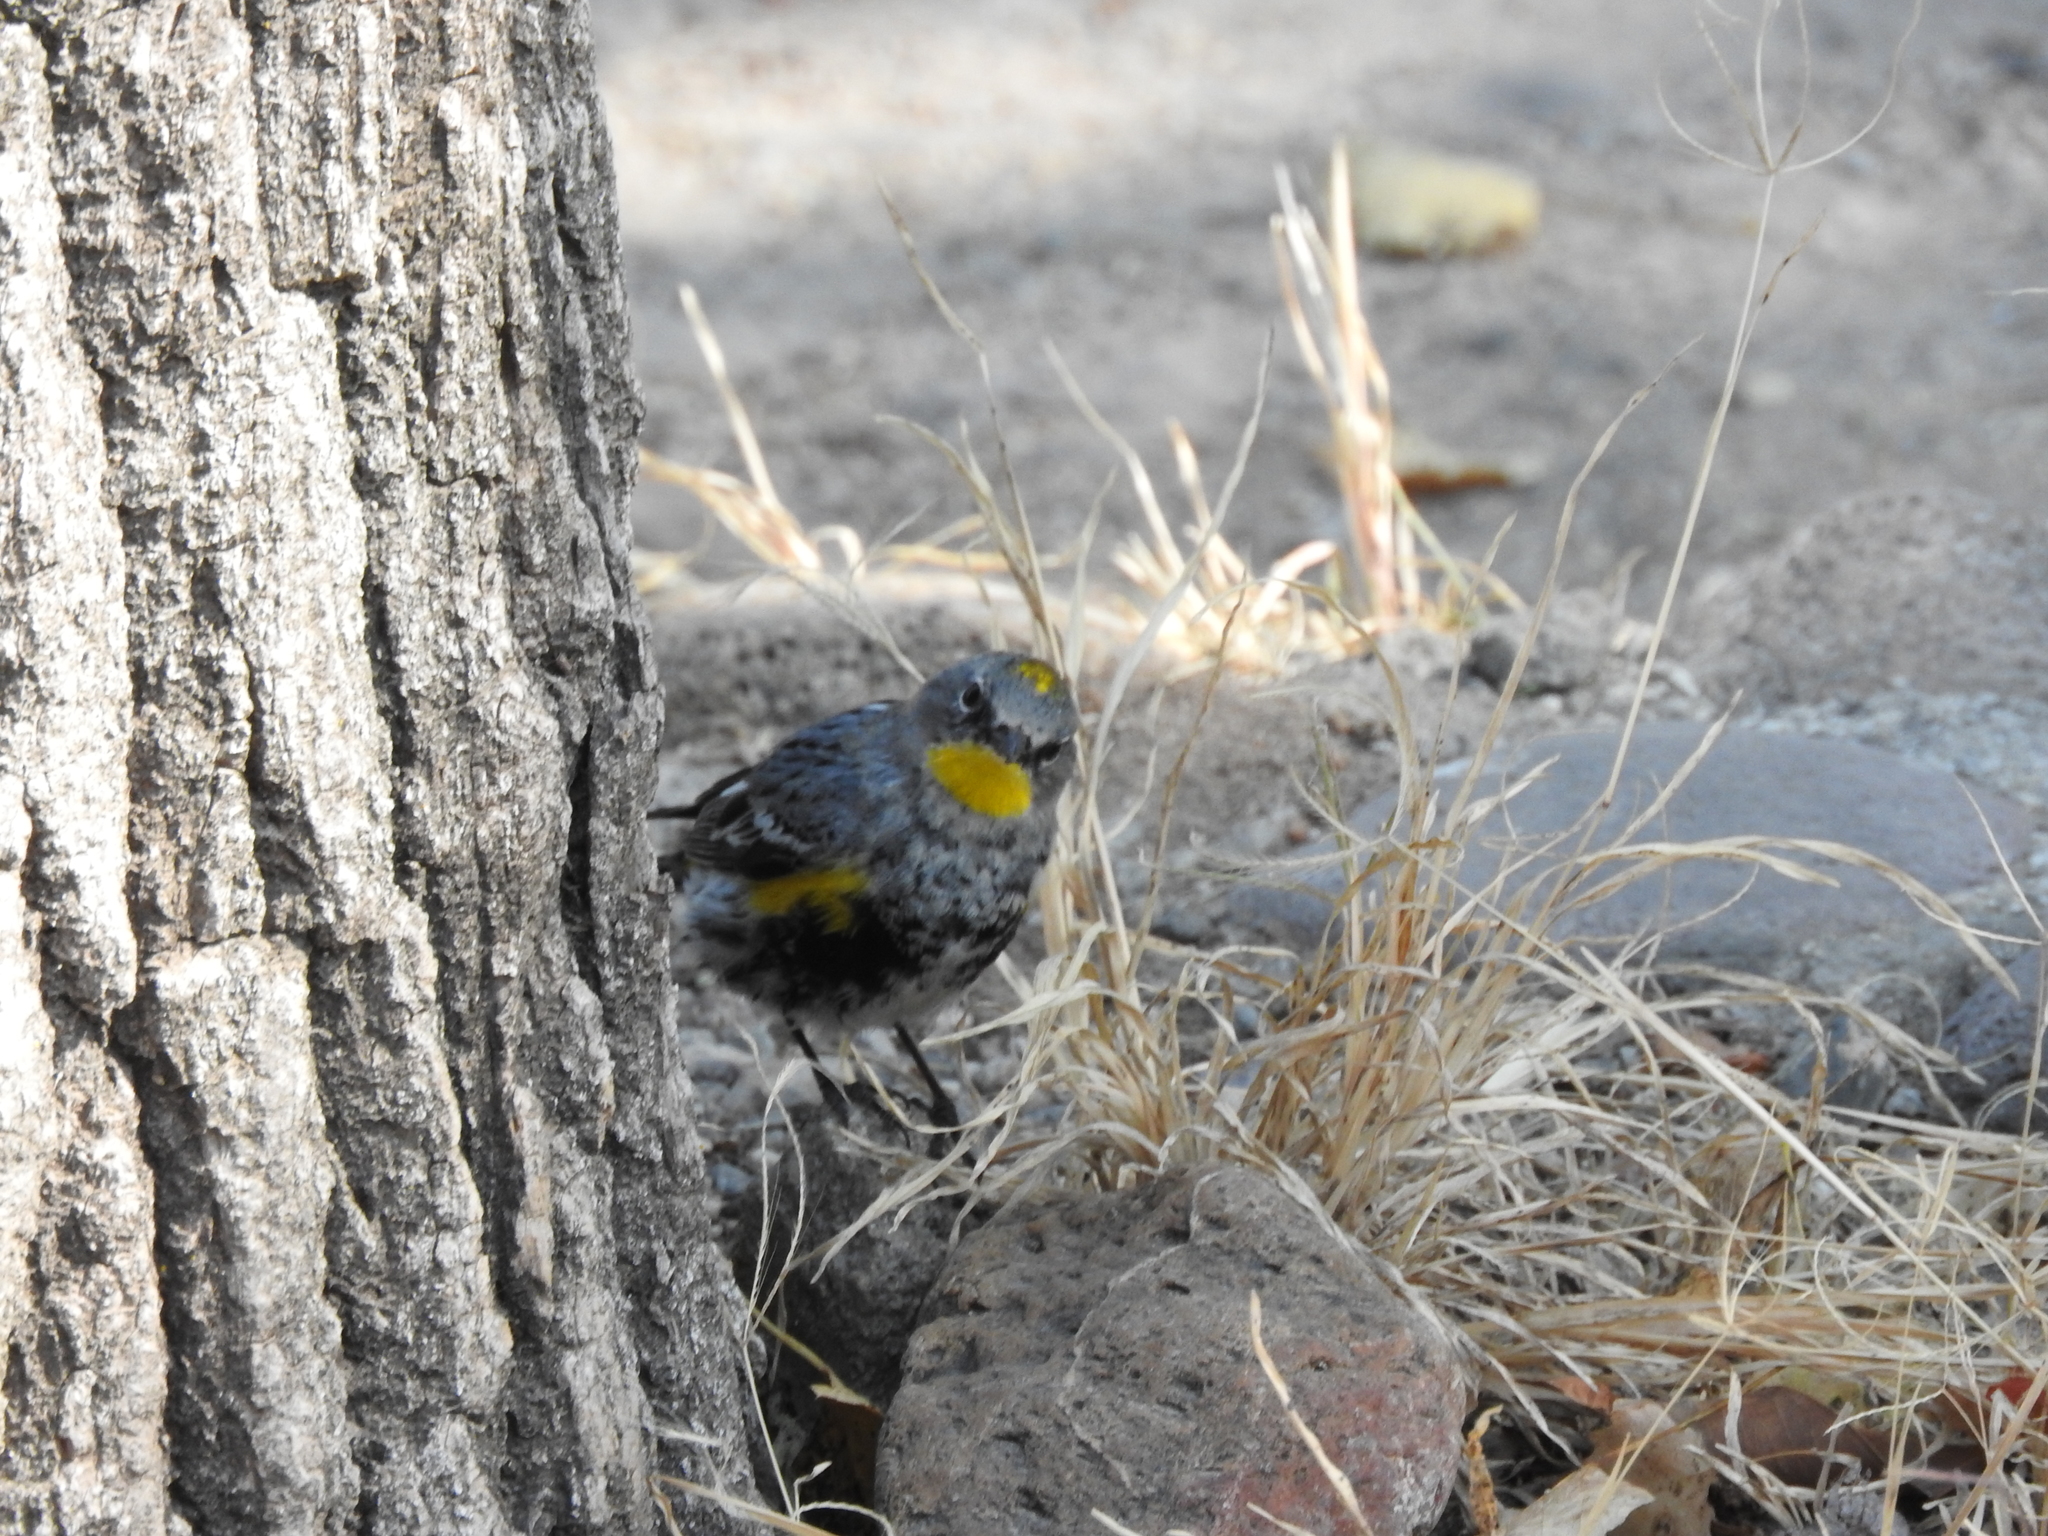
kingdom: Animalia
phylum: Chordata
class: Aves
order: Passeriformes
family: Parulidae
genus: Setophaga
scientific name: Setophaga coronata
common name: Myrtle warbler
